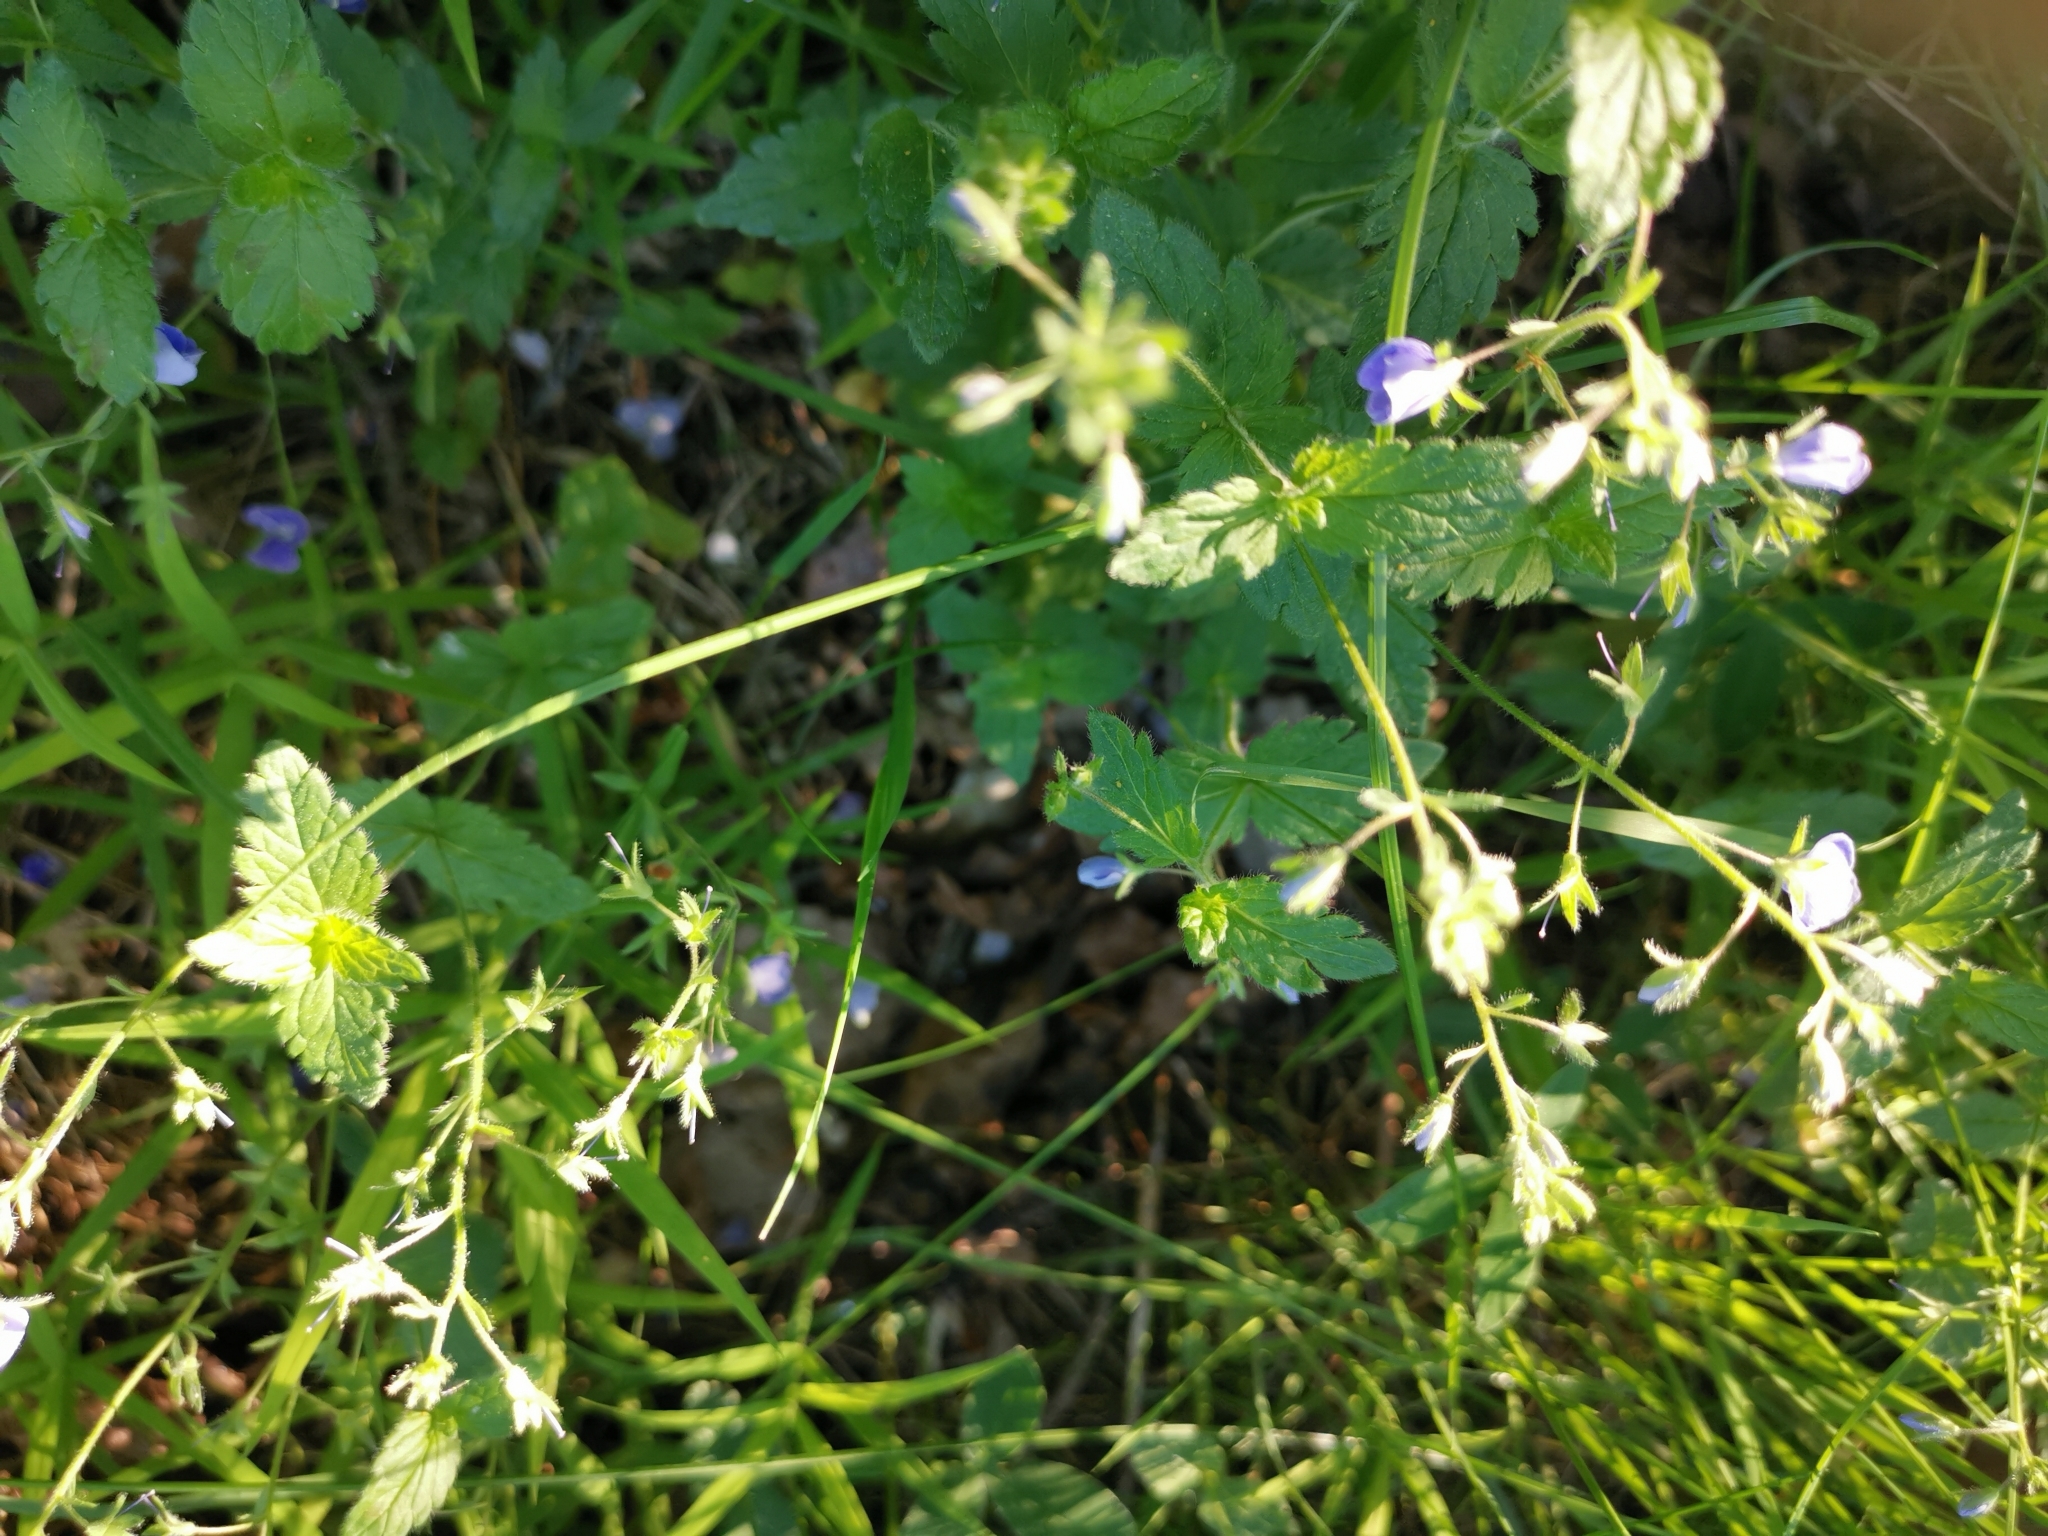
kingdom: Plantae
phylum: Tracheophyta
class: Magnoliopsida
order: Lamiales
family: Plantaginaceae
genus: Veronica
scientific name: Veronica chamaedrys
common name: Germander speedwell
